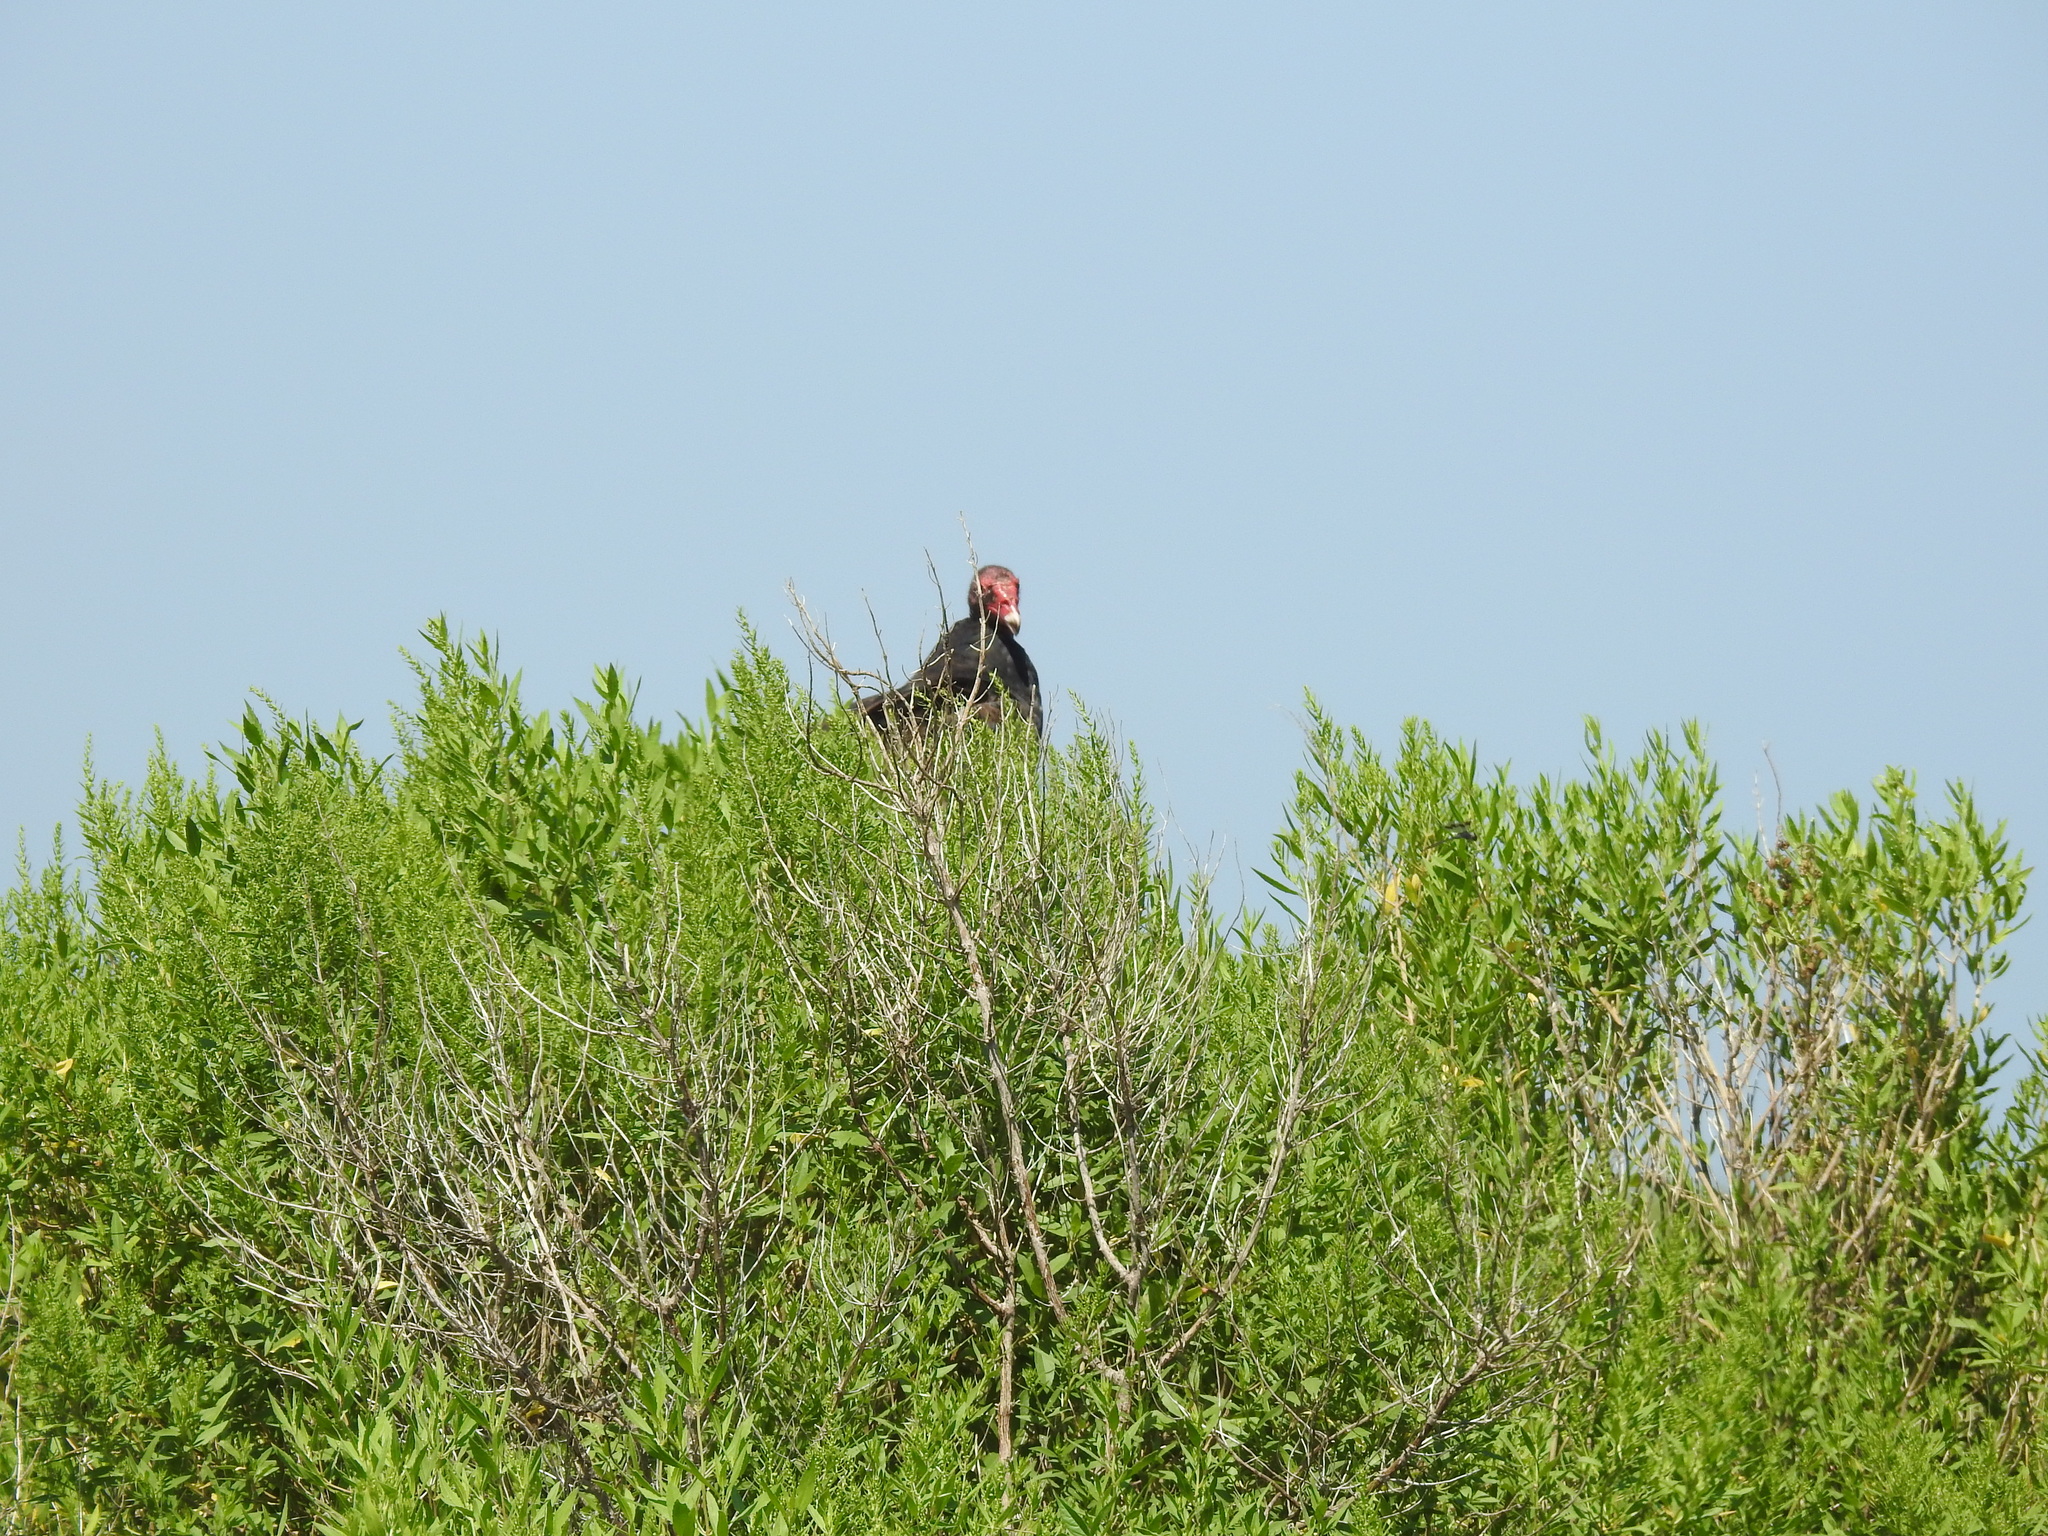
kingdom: Animalia
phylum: Chordata
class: Aves
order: Accipitriformes
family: Cathartidae
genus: Cathartes
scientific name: Cathartes aura
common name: Turkey vulture
